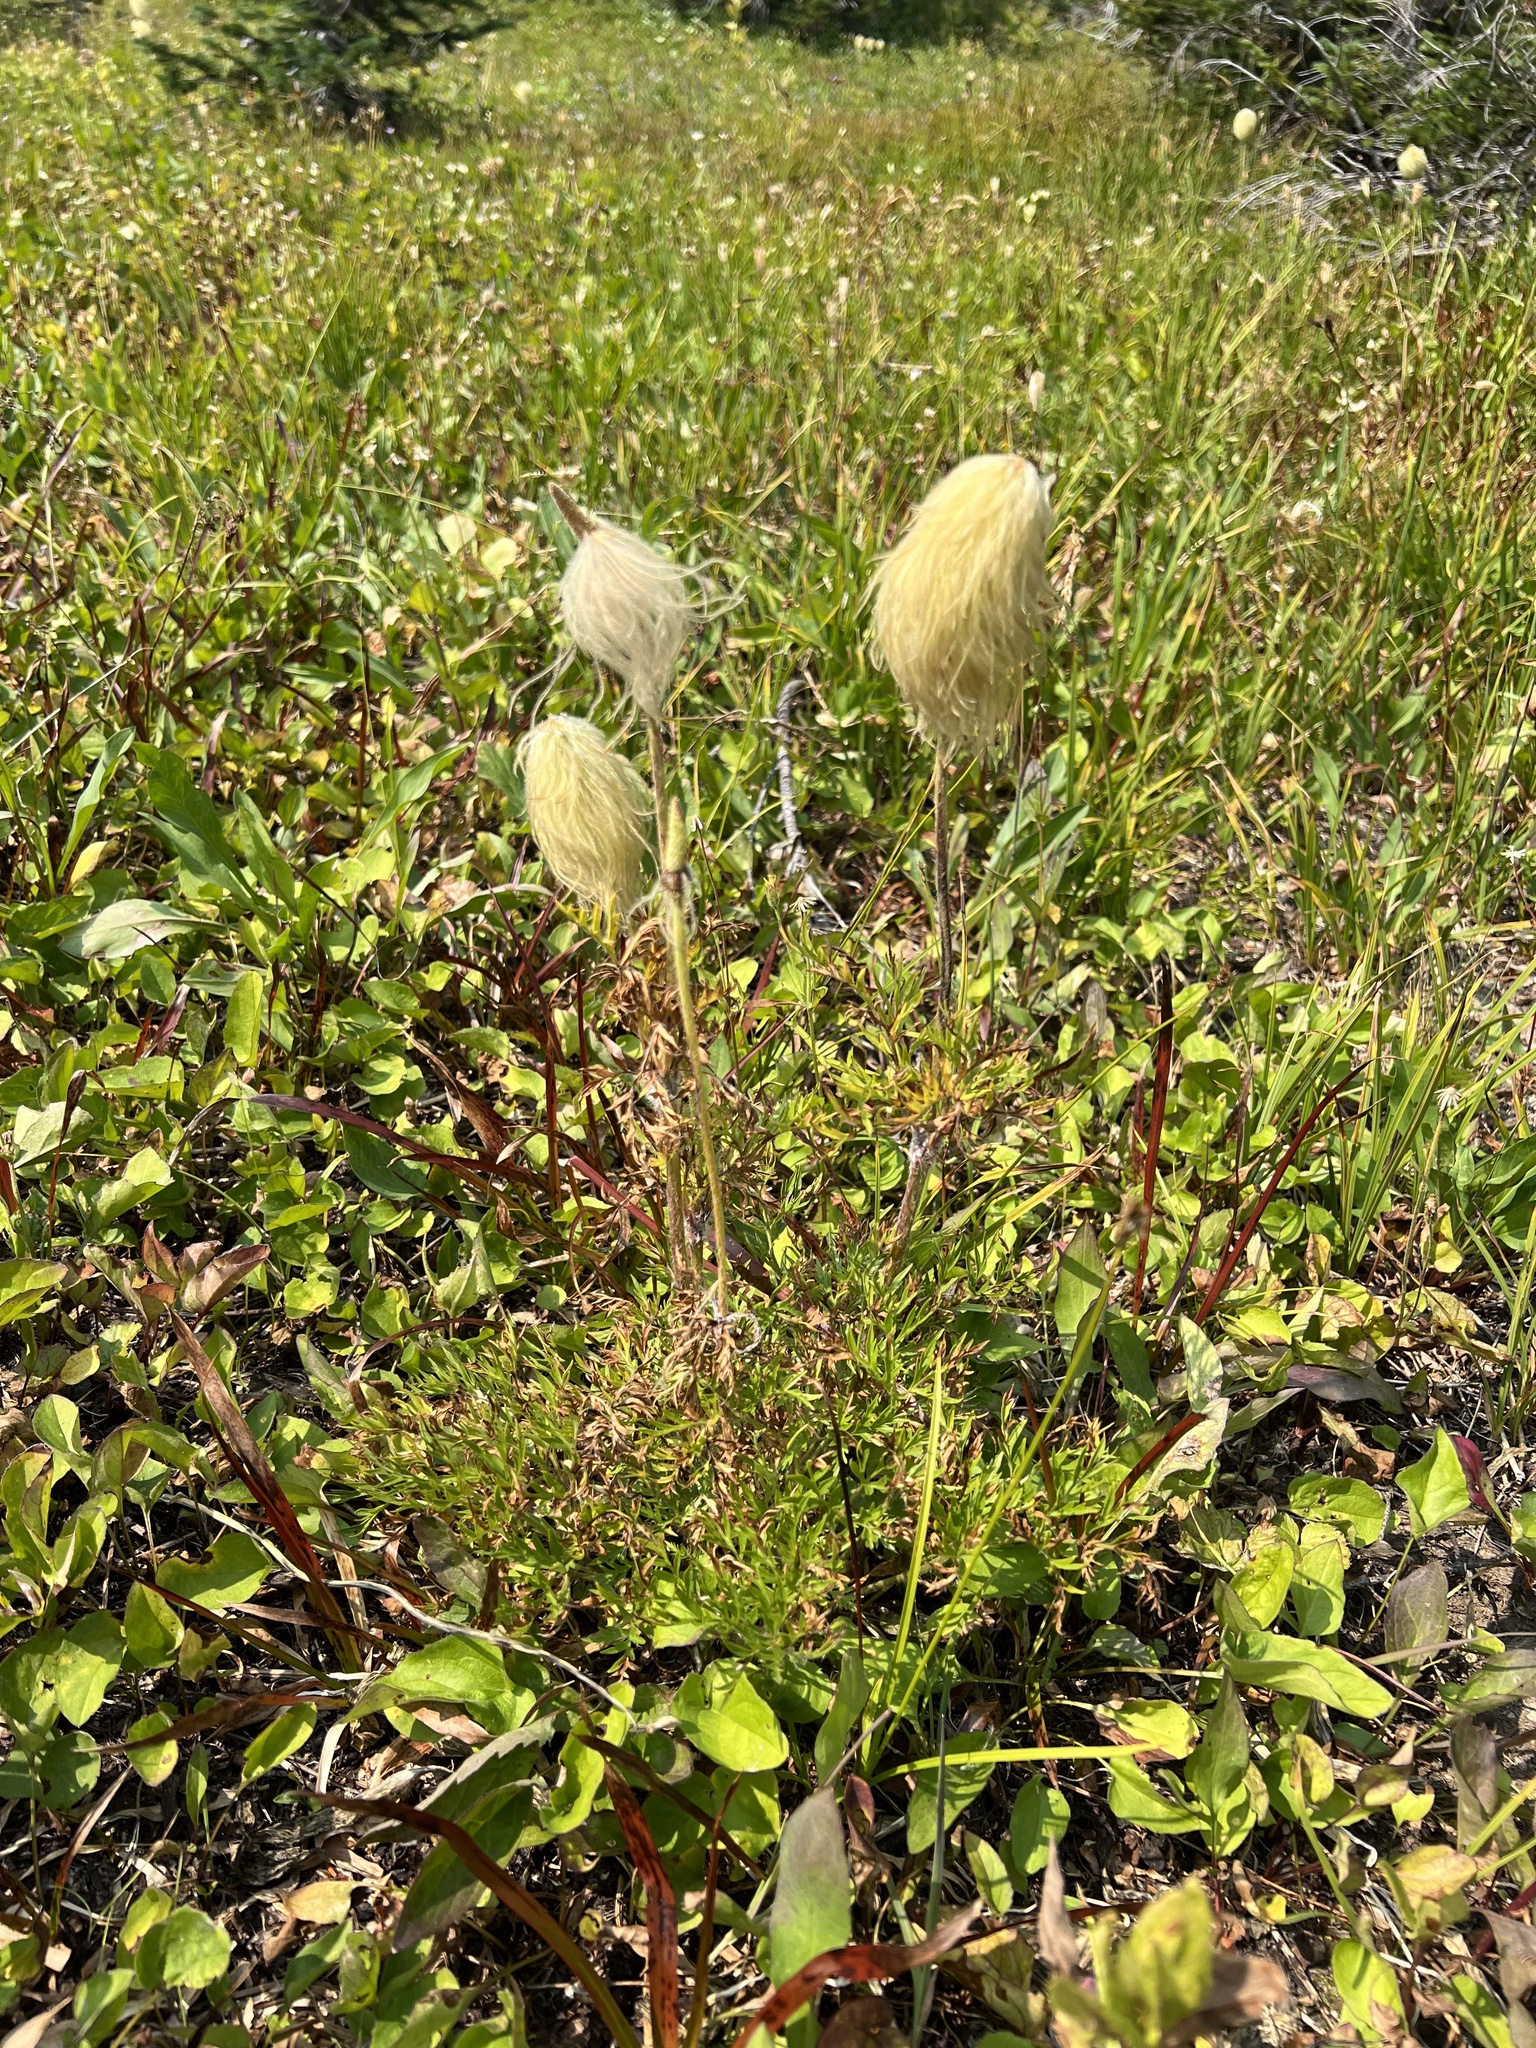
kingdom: Plantae
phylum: Tracheophyta
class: Magnoliopsida
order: Ranunculales
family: Ranunculaceae
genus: Pulsatilla
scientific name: Pulsatilla occidentalis
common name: Mountain pasqueflower
